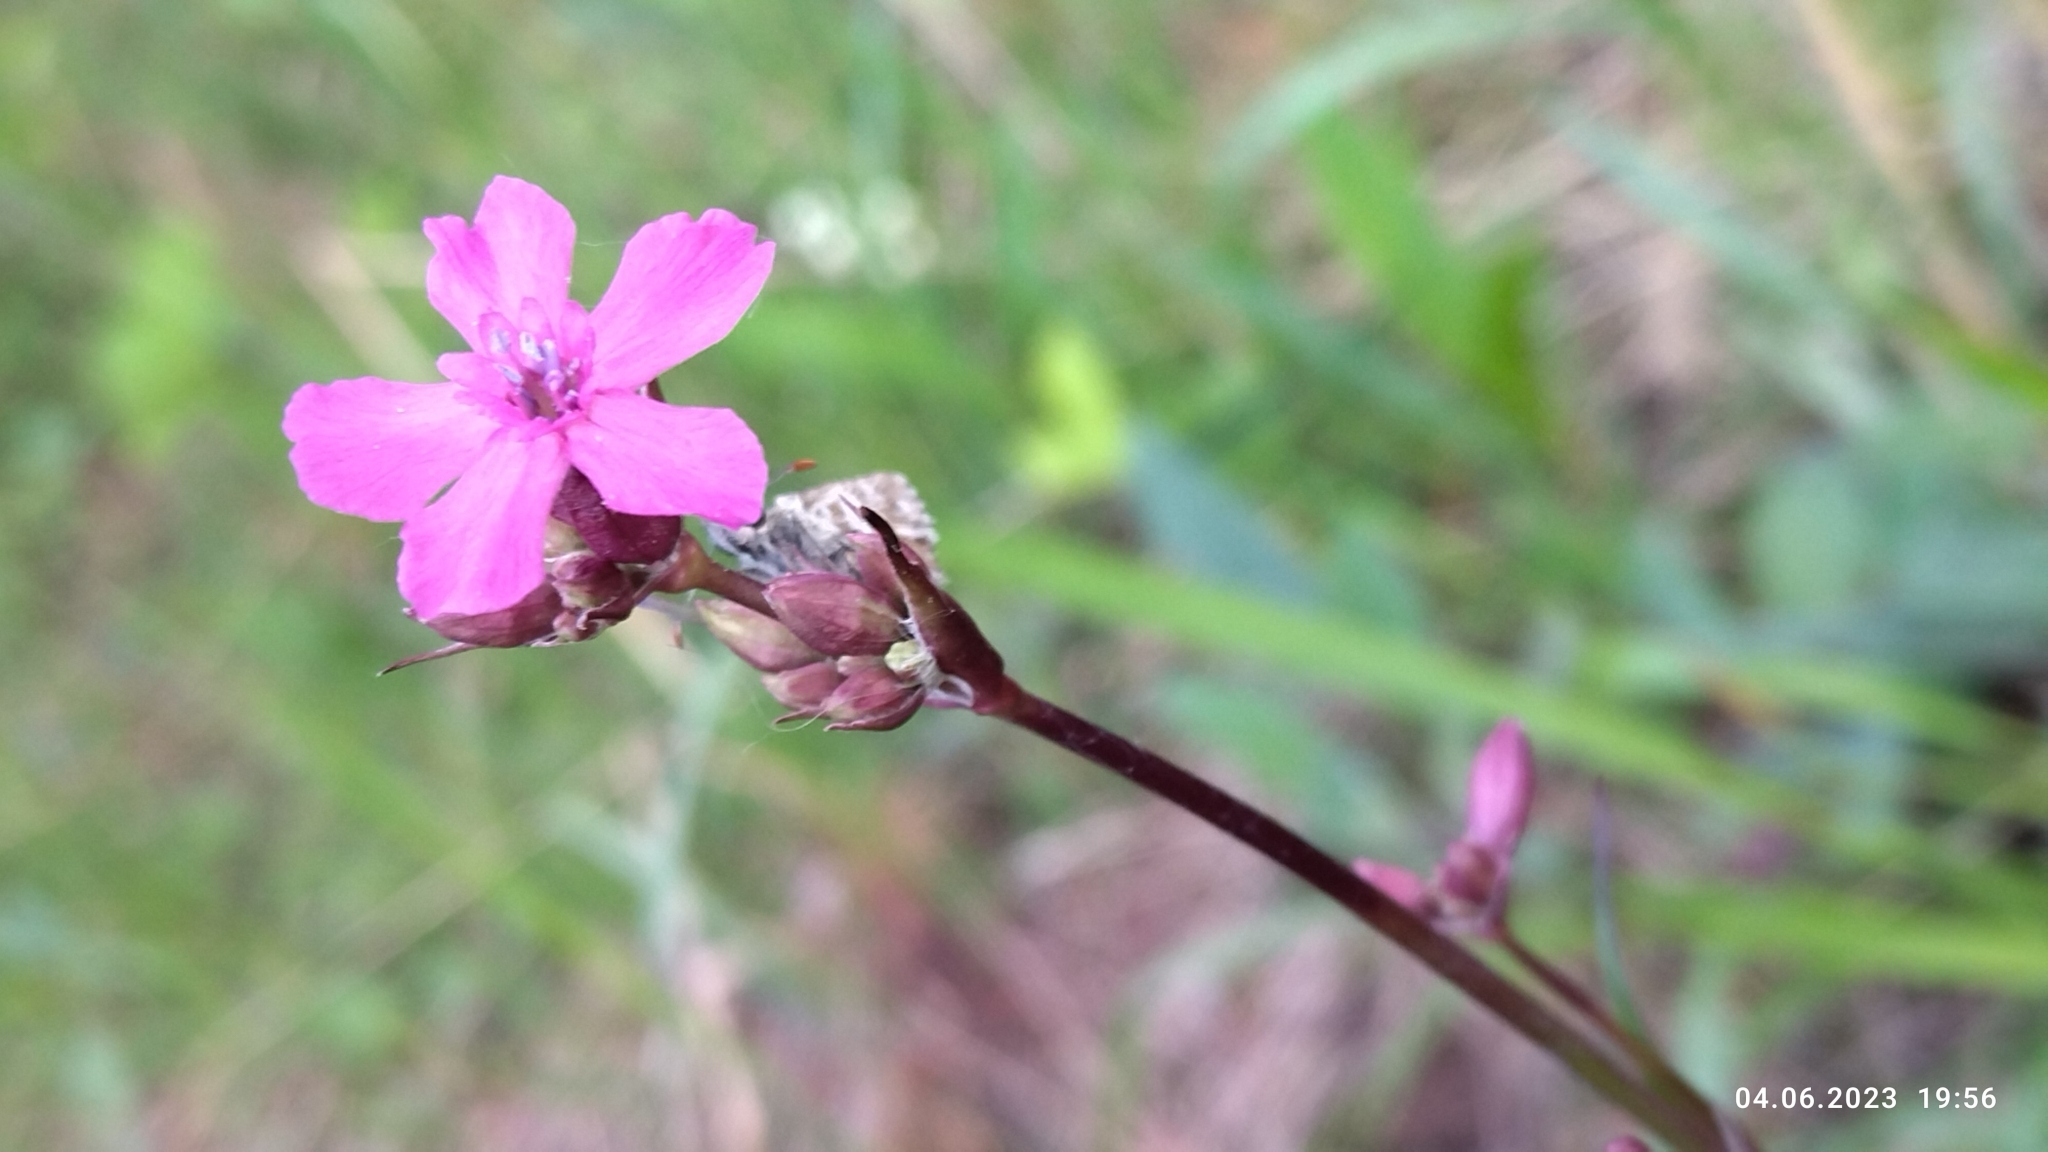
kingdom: Plantae
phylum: Tracheophyta
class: Magnoliopsida
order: Caryophyllales
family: Caryophyllaceae
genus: Viscaria
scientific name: Viscaria vulgaris
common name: Clammy campion
